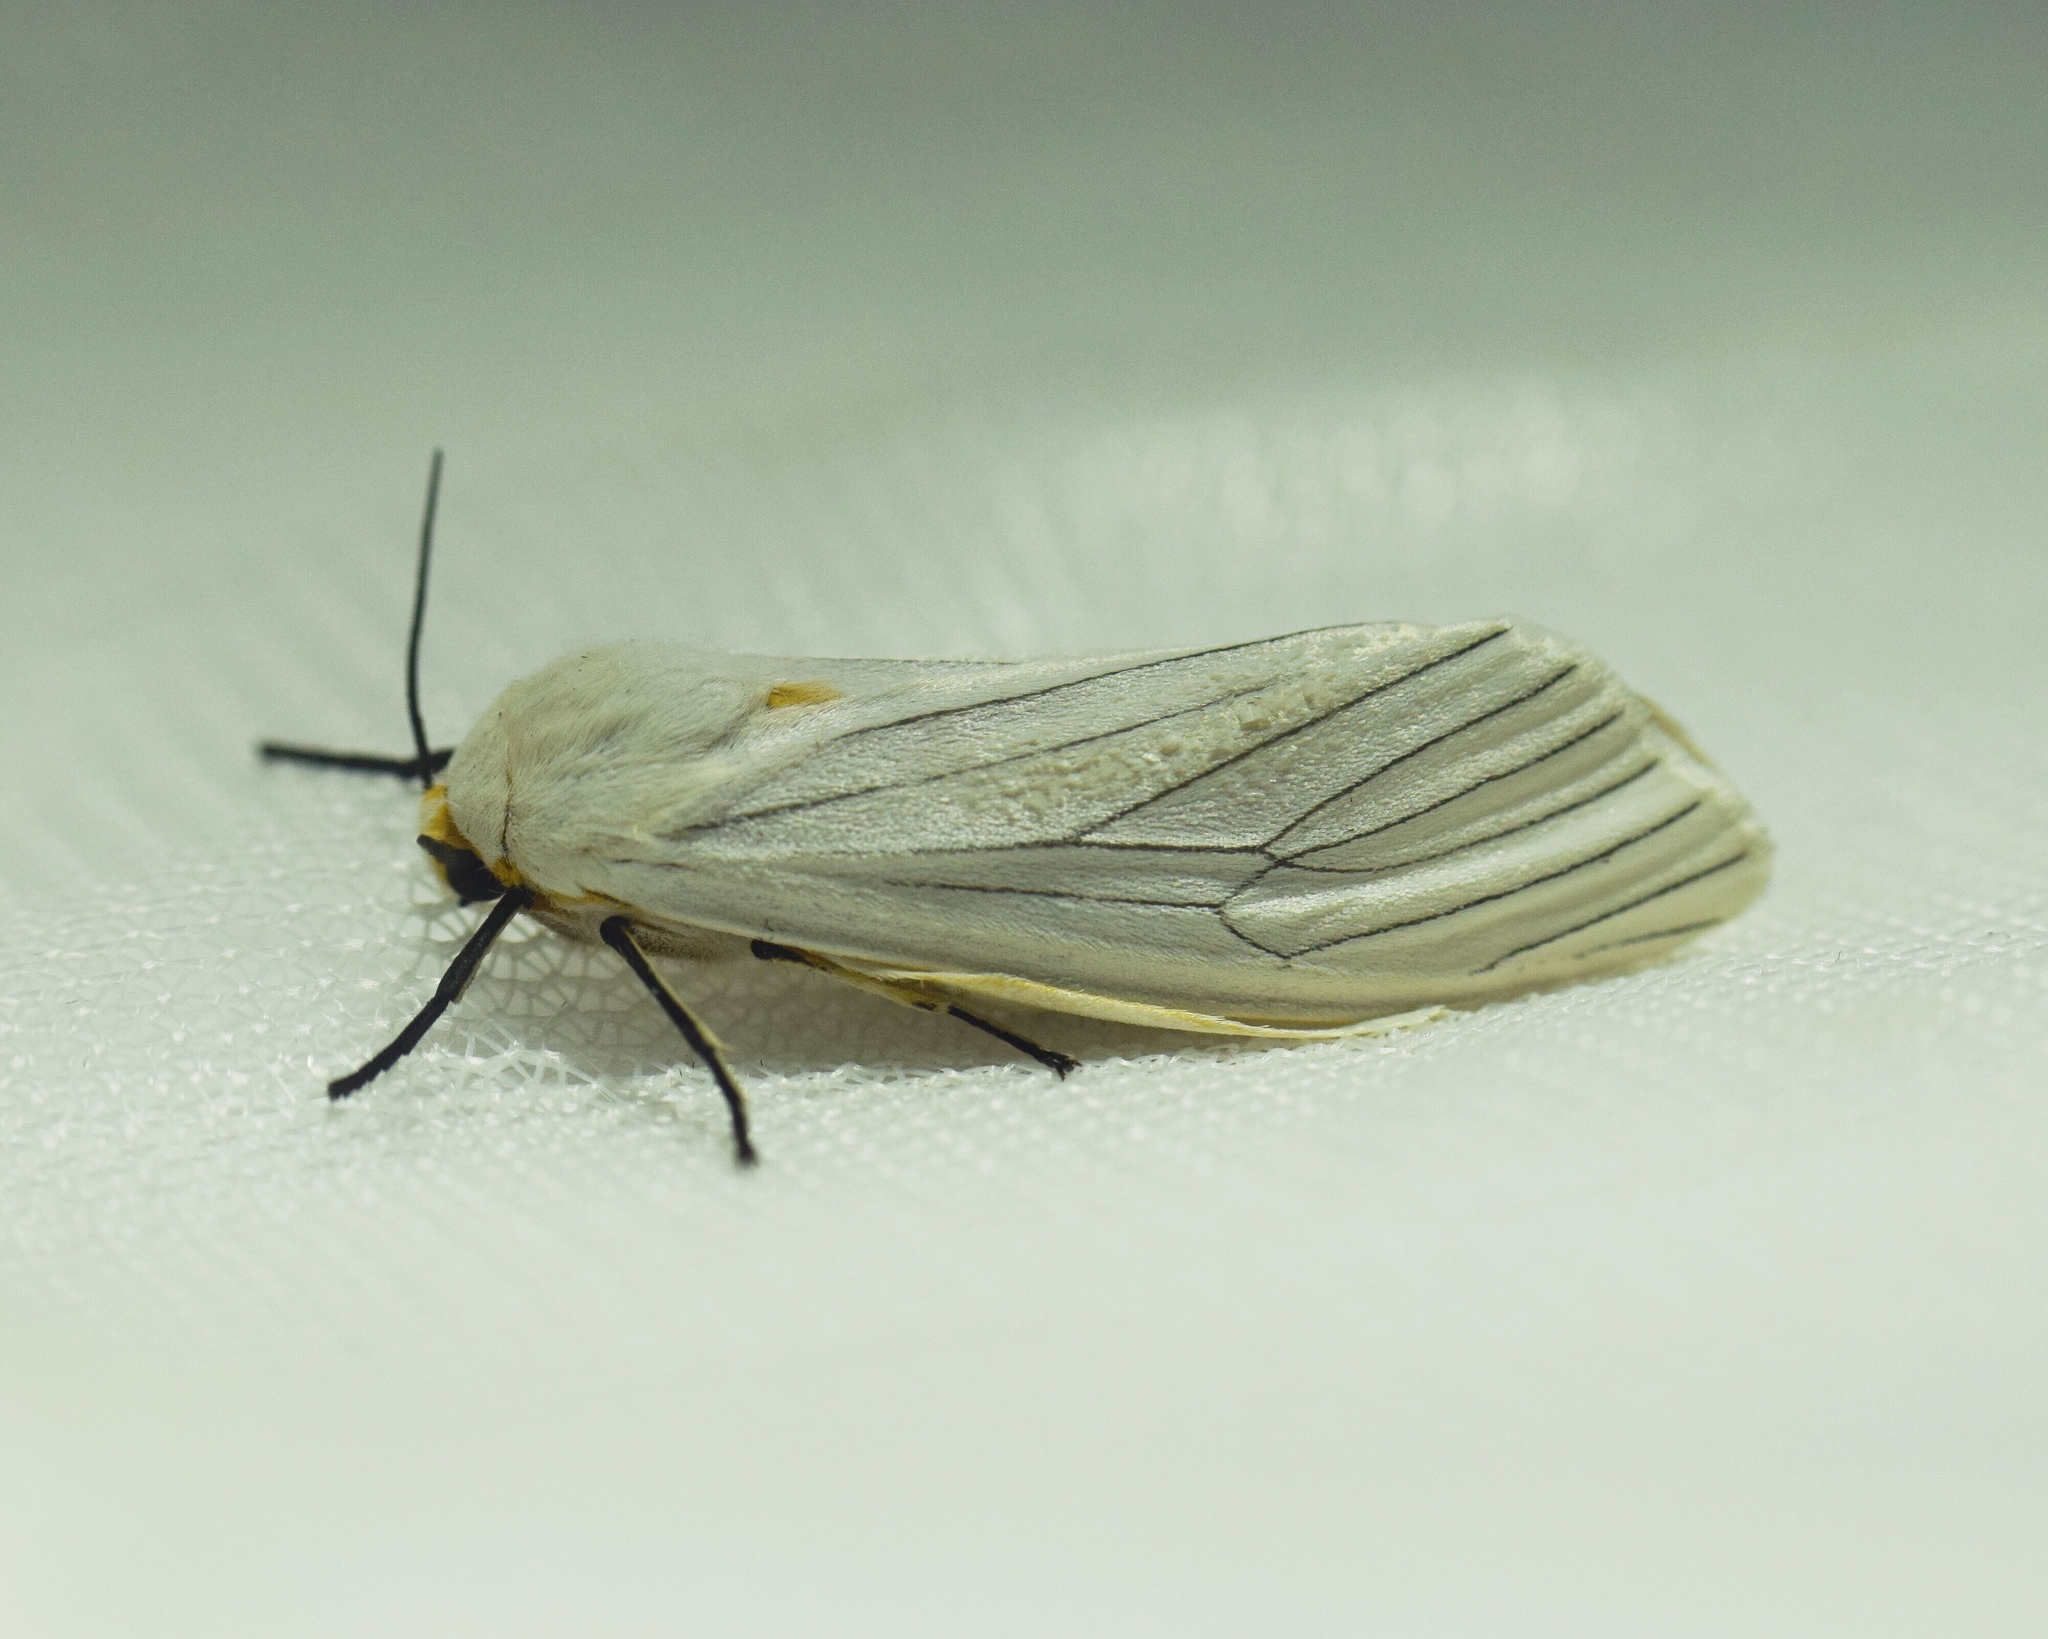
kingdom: Animalia
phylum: Arthropoda
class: Insecta
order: Lepidoptera
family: Erebidae
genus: Ustjuzhania
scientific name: Ustjuzhania lineata
